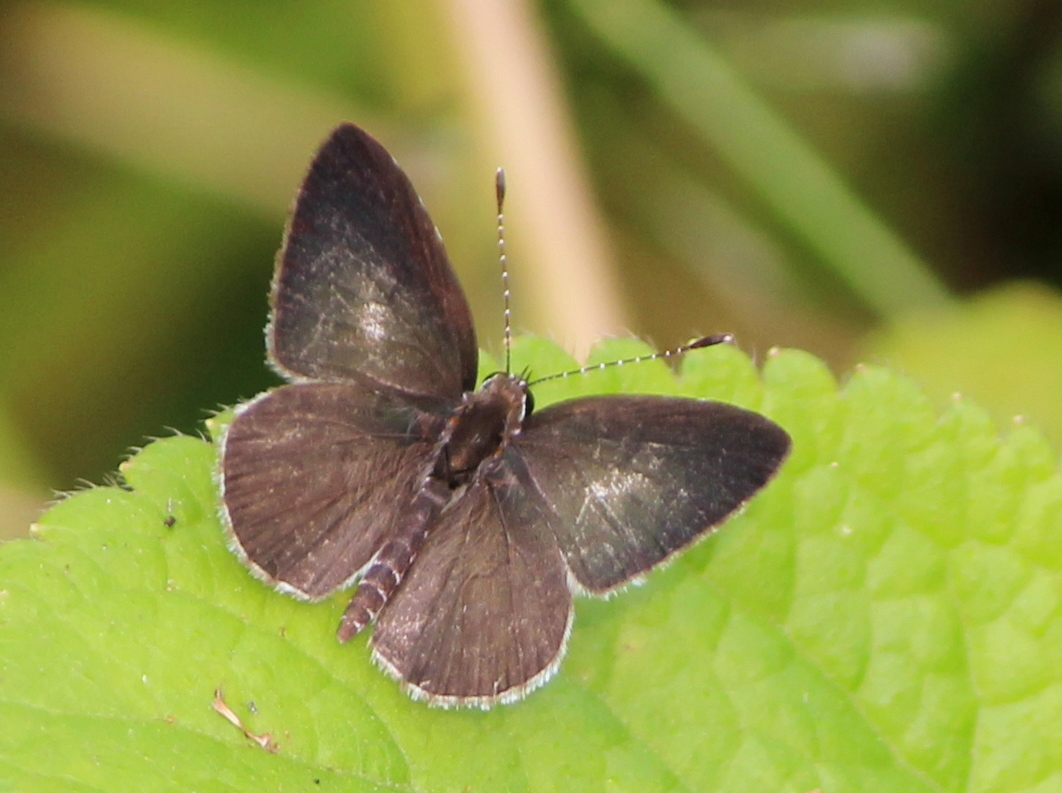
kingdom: Animalia
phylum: Arthropoda
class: Insecta
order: Lepidoptera
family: Lycaenidae
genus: Megisba
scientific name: Megisba malaya
